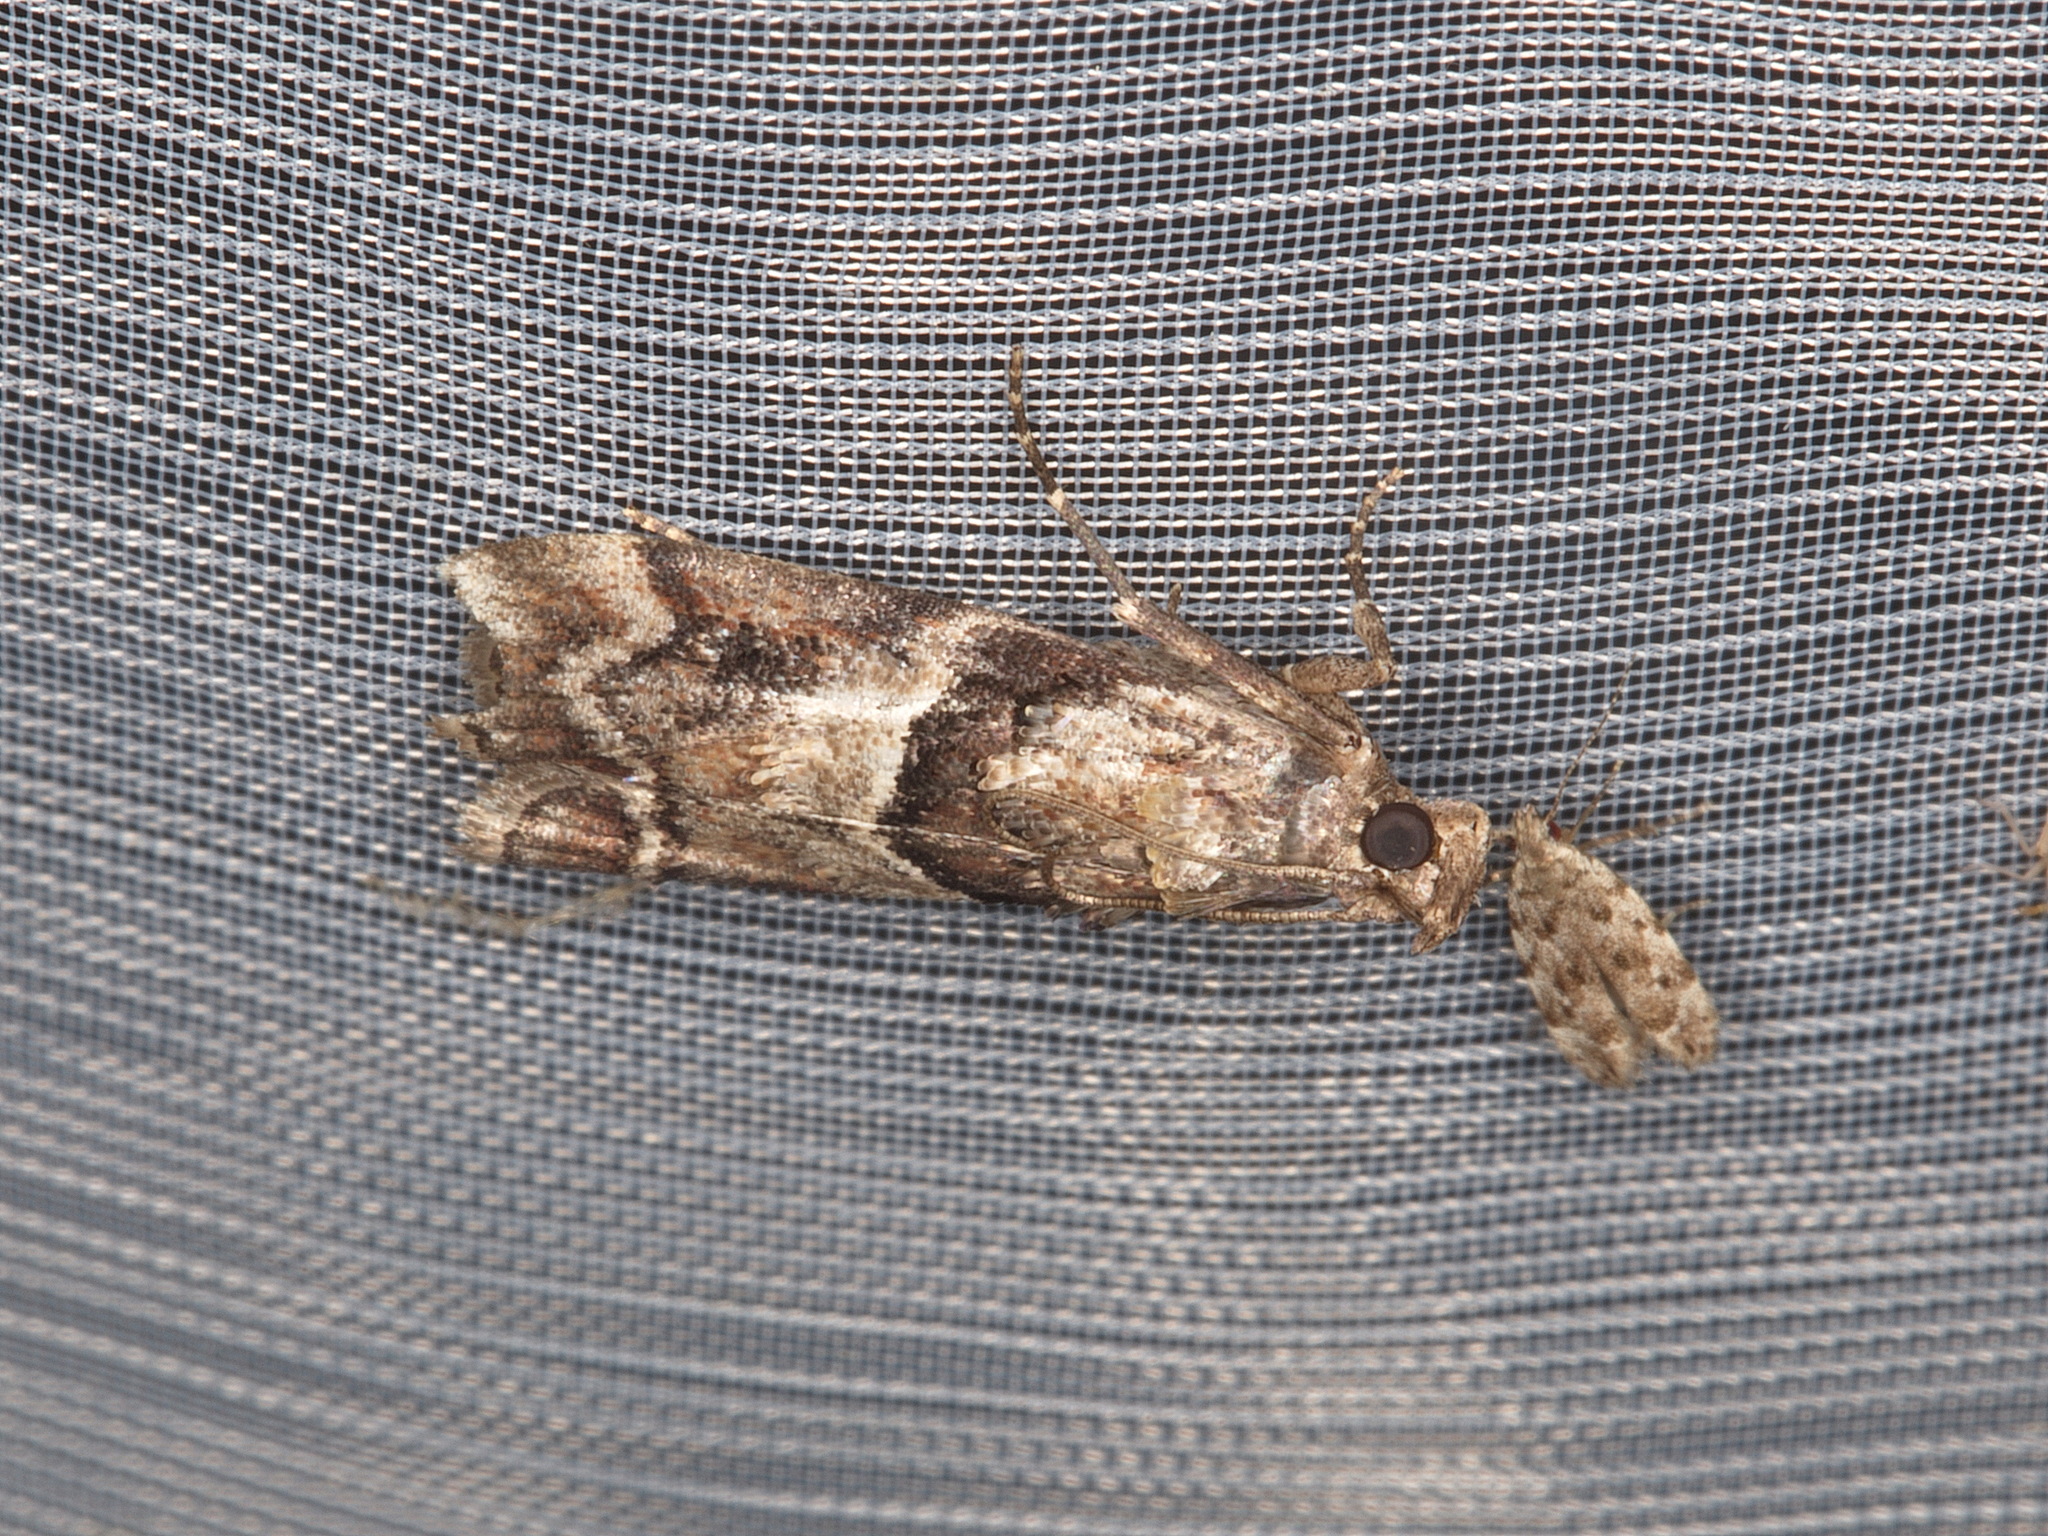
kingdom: Animalia
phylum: Arthropoda
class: Insecta
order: Lepidoptera
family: Pyralidae
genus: Dioryctria
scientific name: Dioryctria clarioralis
